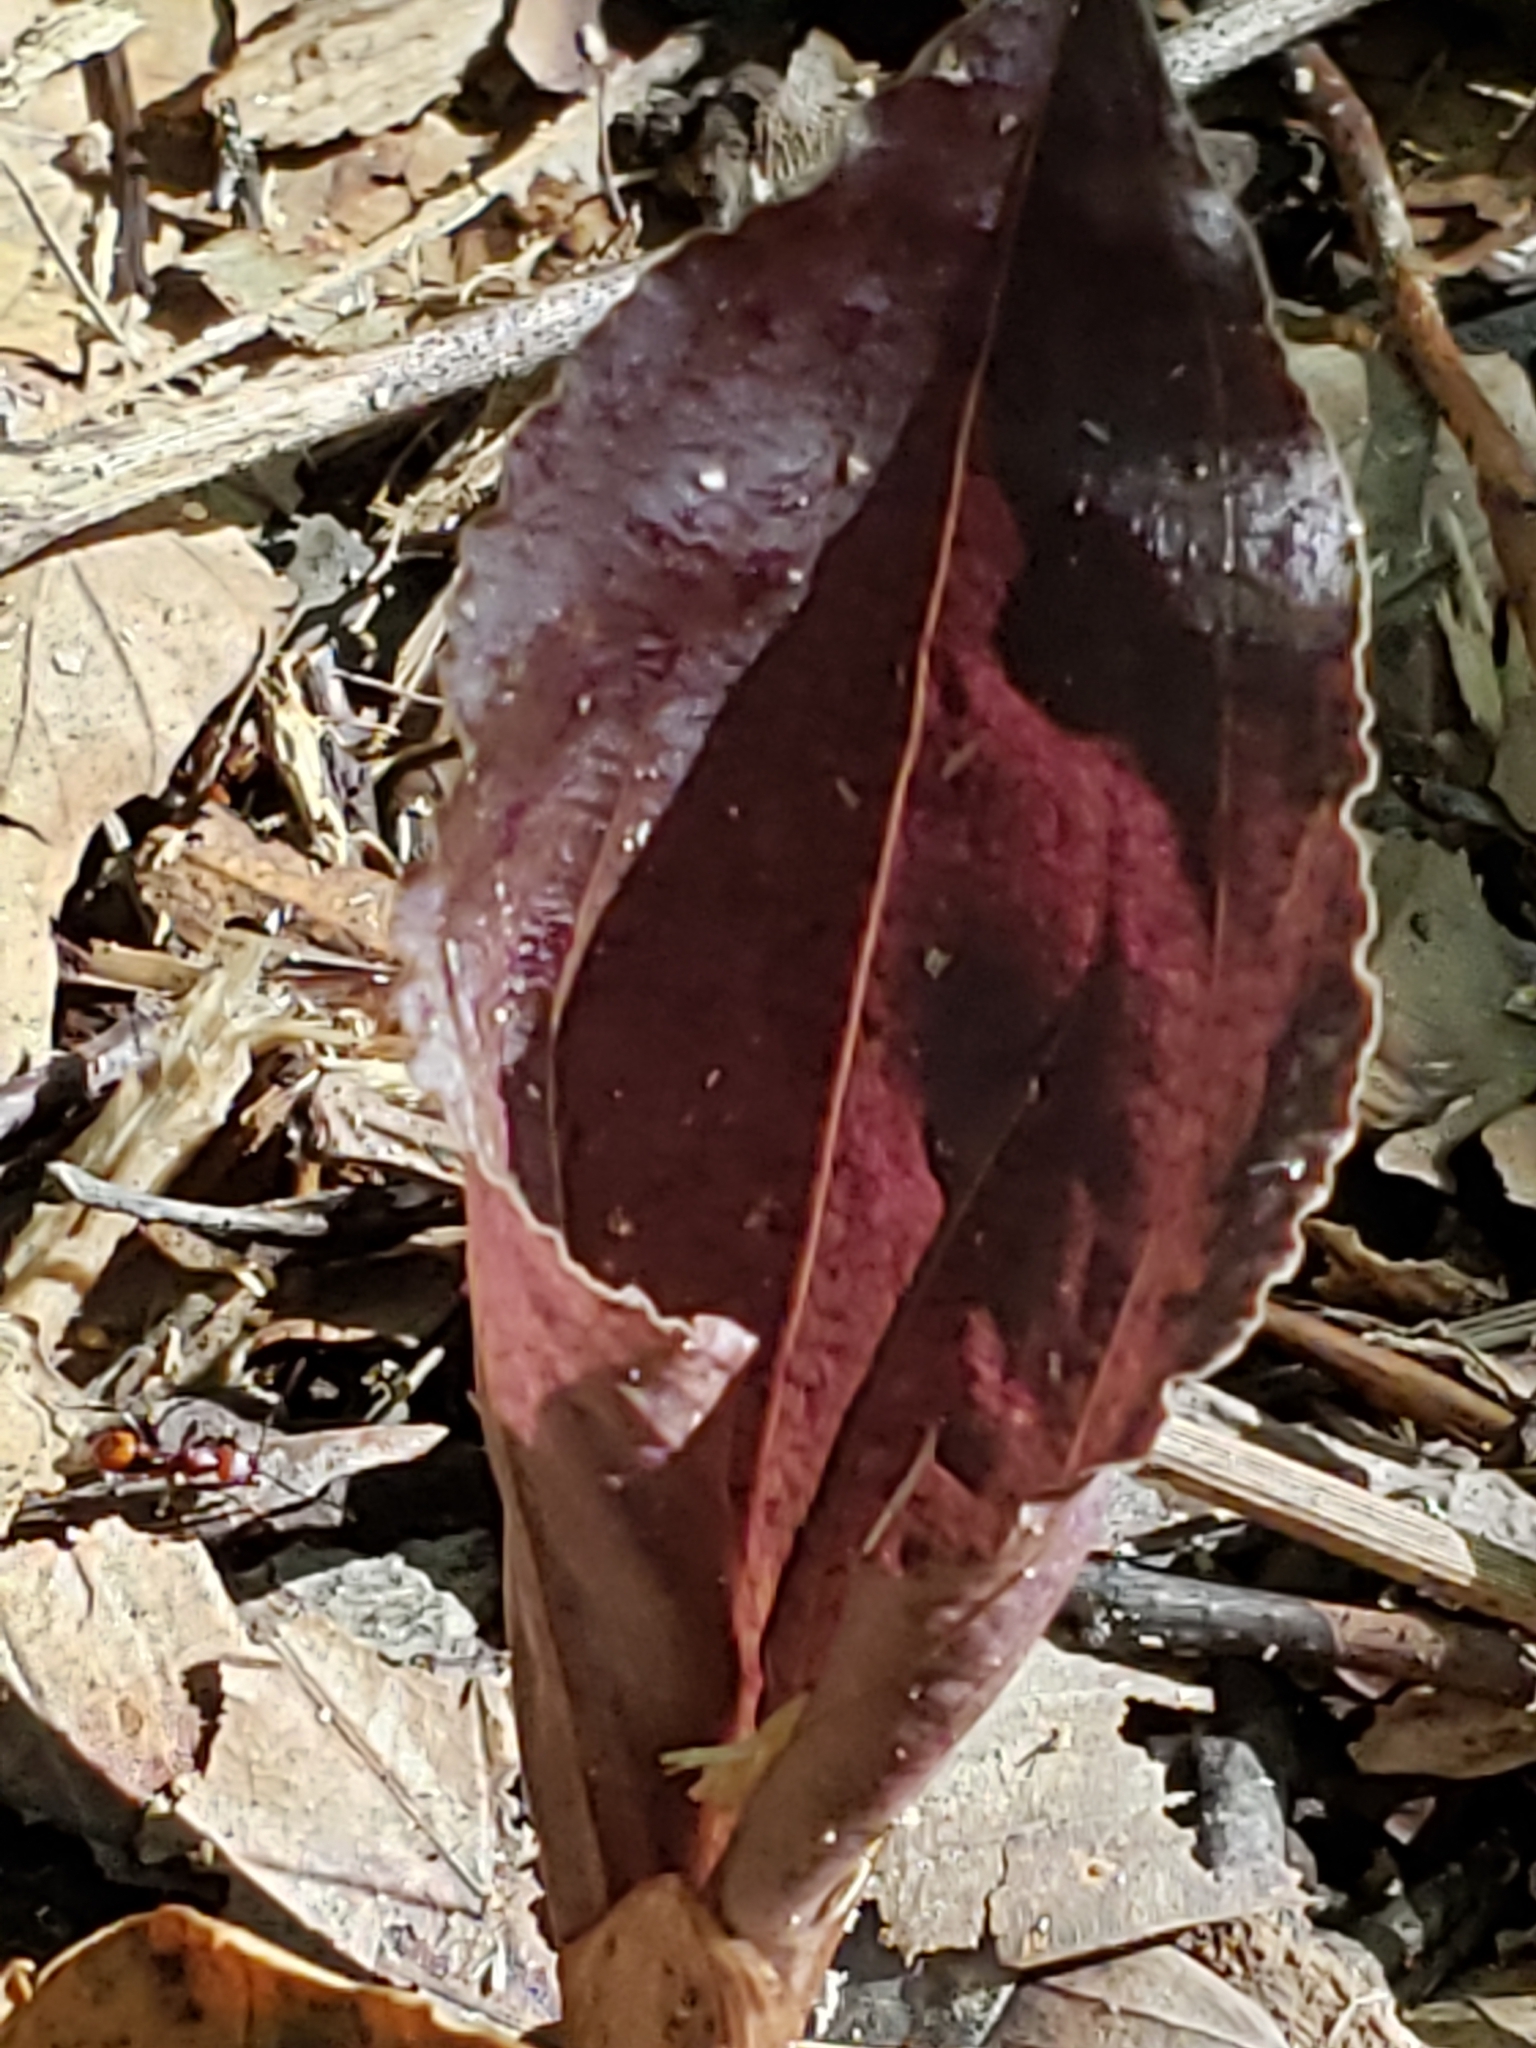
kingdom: Plantae
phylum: Tracheophyta
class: Liliopsida
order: Asparagales
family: Orchidaceae
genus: Tipularia
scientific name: Tipularia discolor
